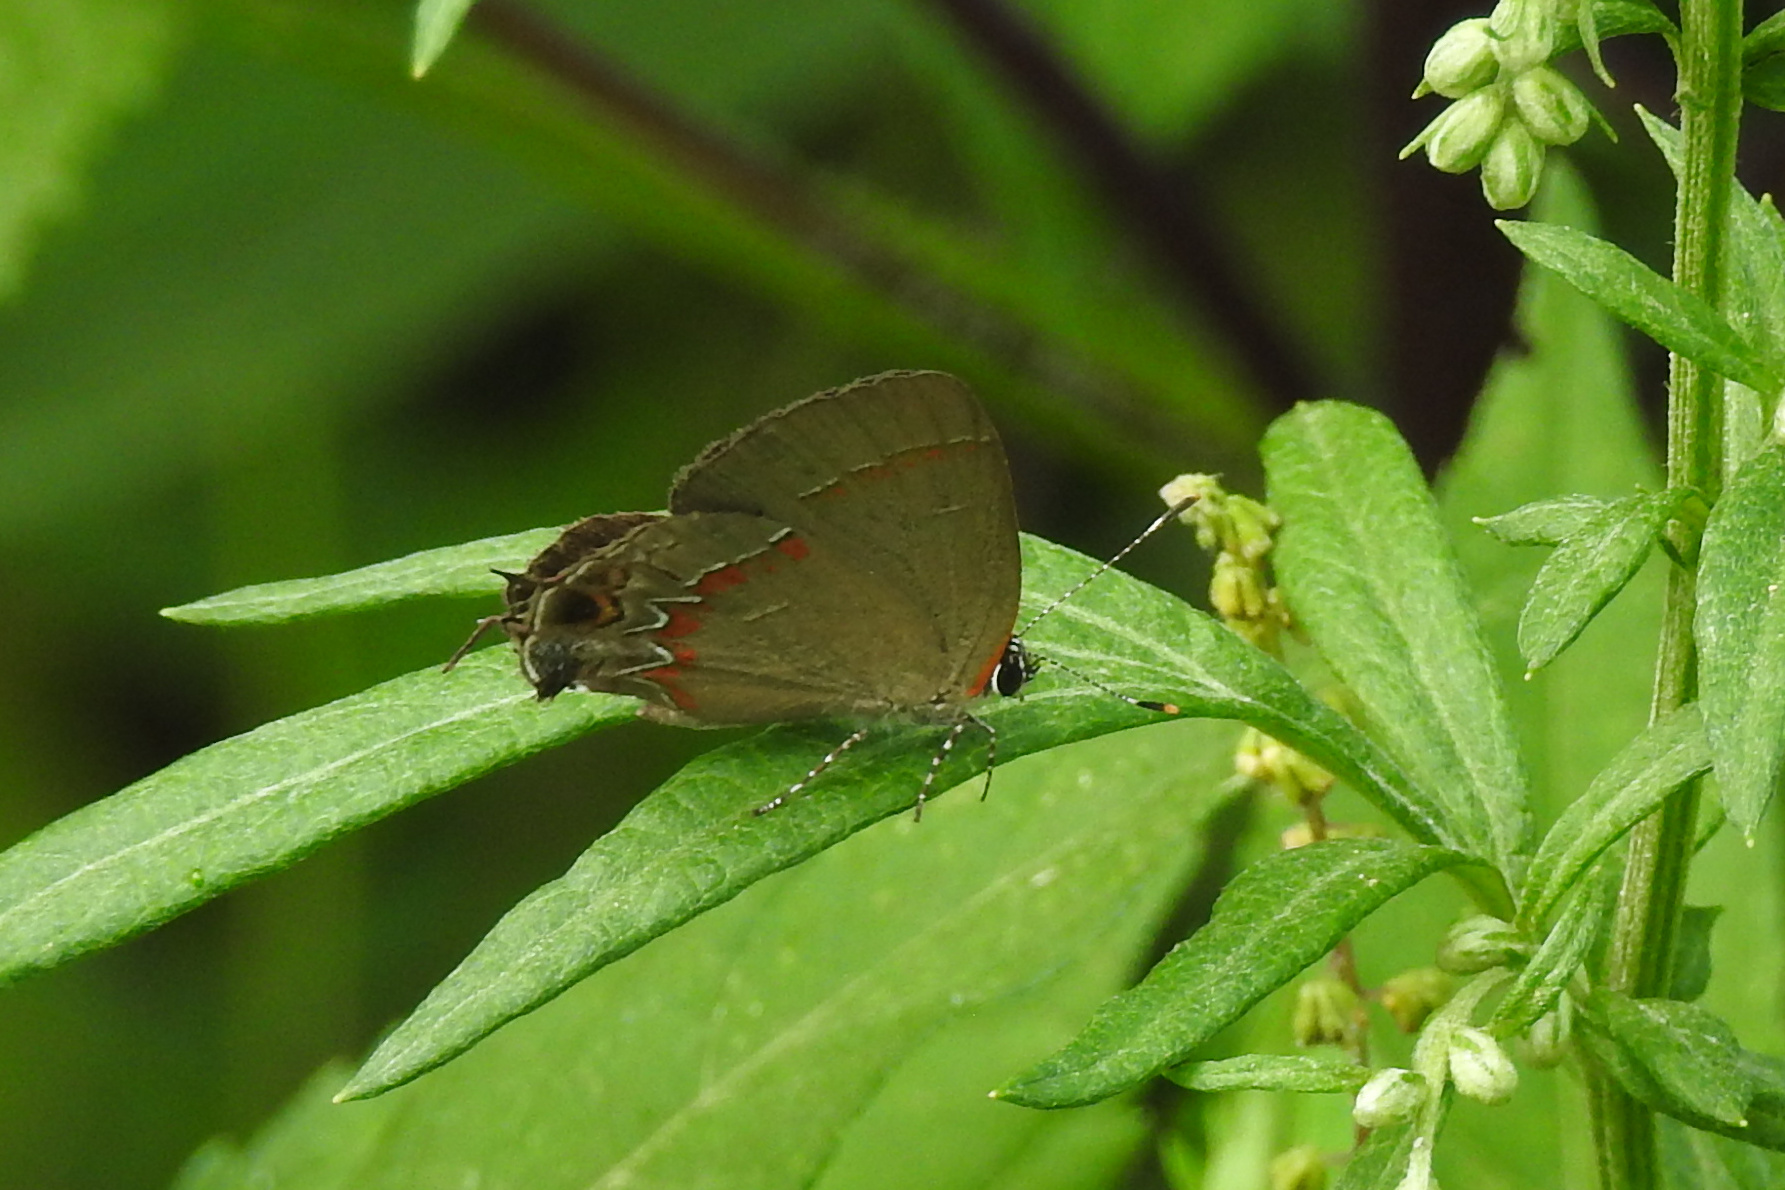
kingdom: Animalia
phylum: Arthropoda
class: Insecta
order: Lepidoptera
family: Lycaenidae
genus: Calycopis
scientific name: Calycopis cecrops
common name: Red-banded hairstreak
